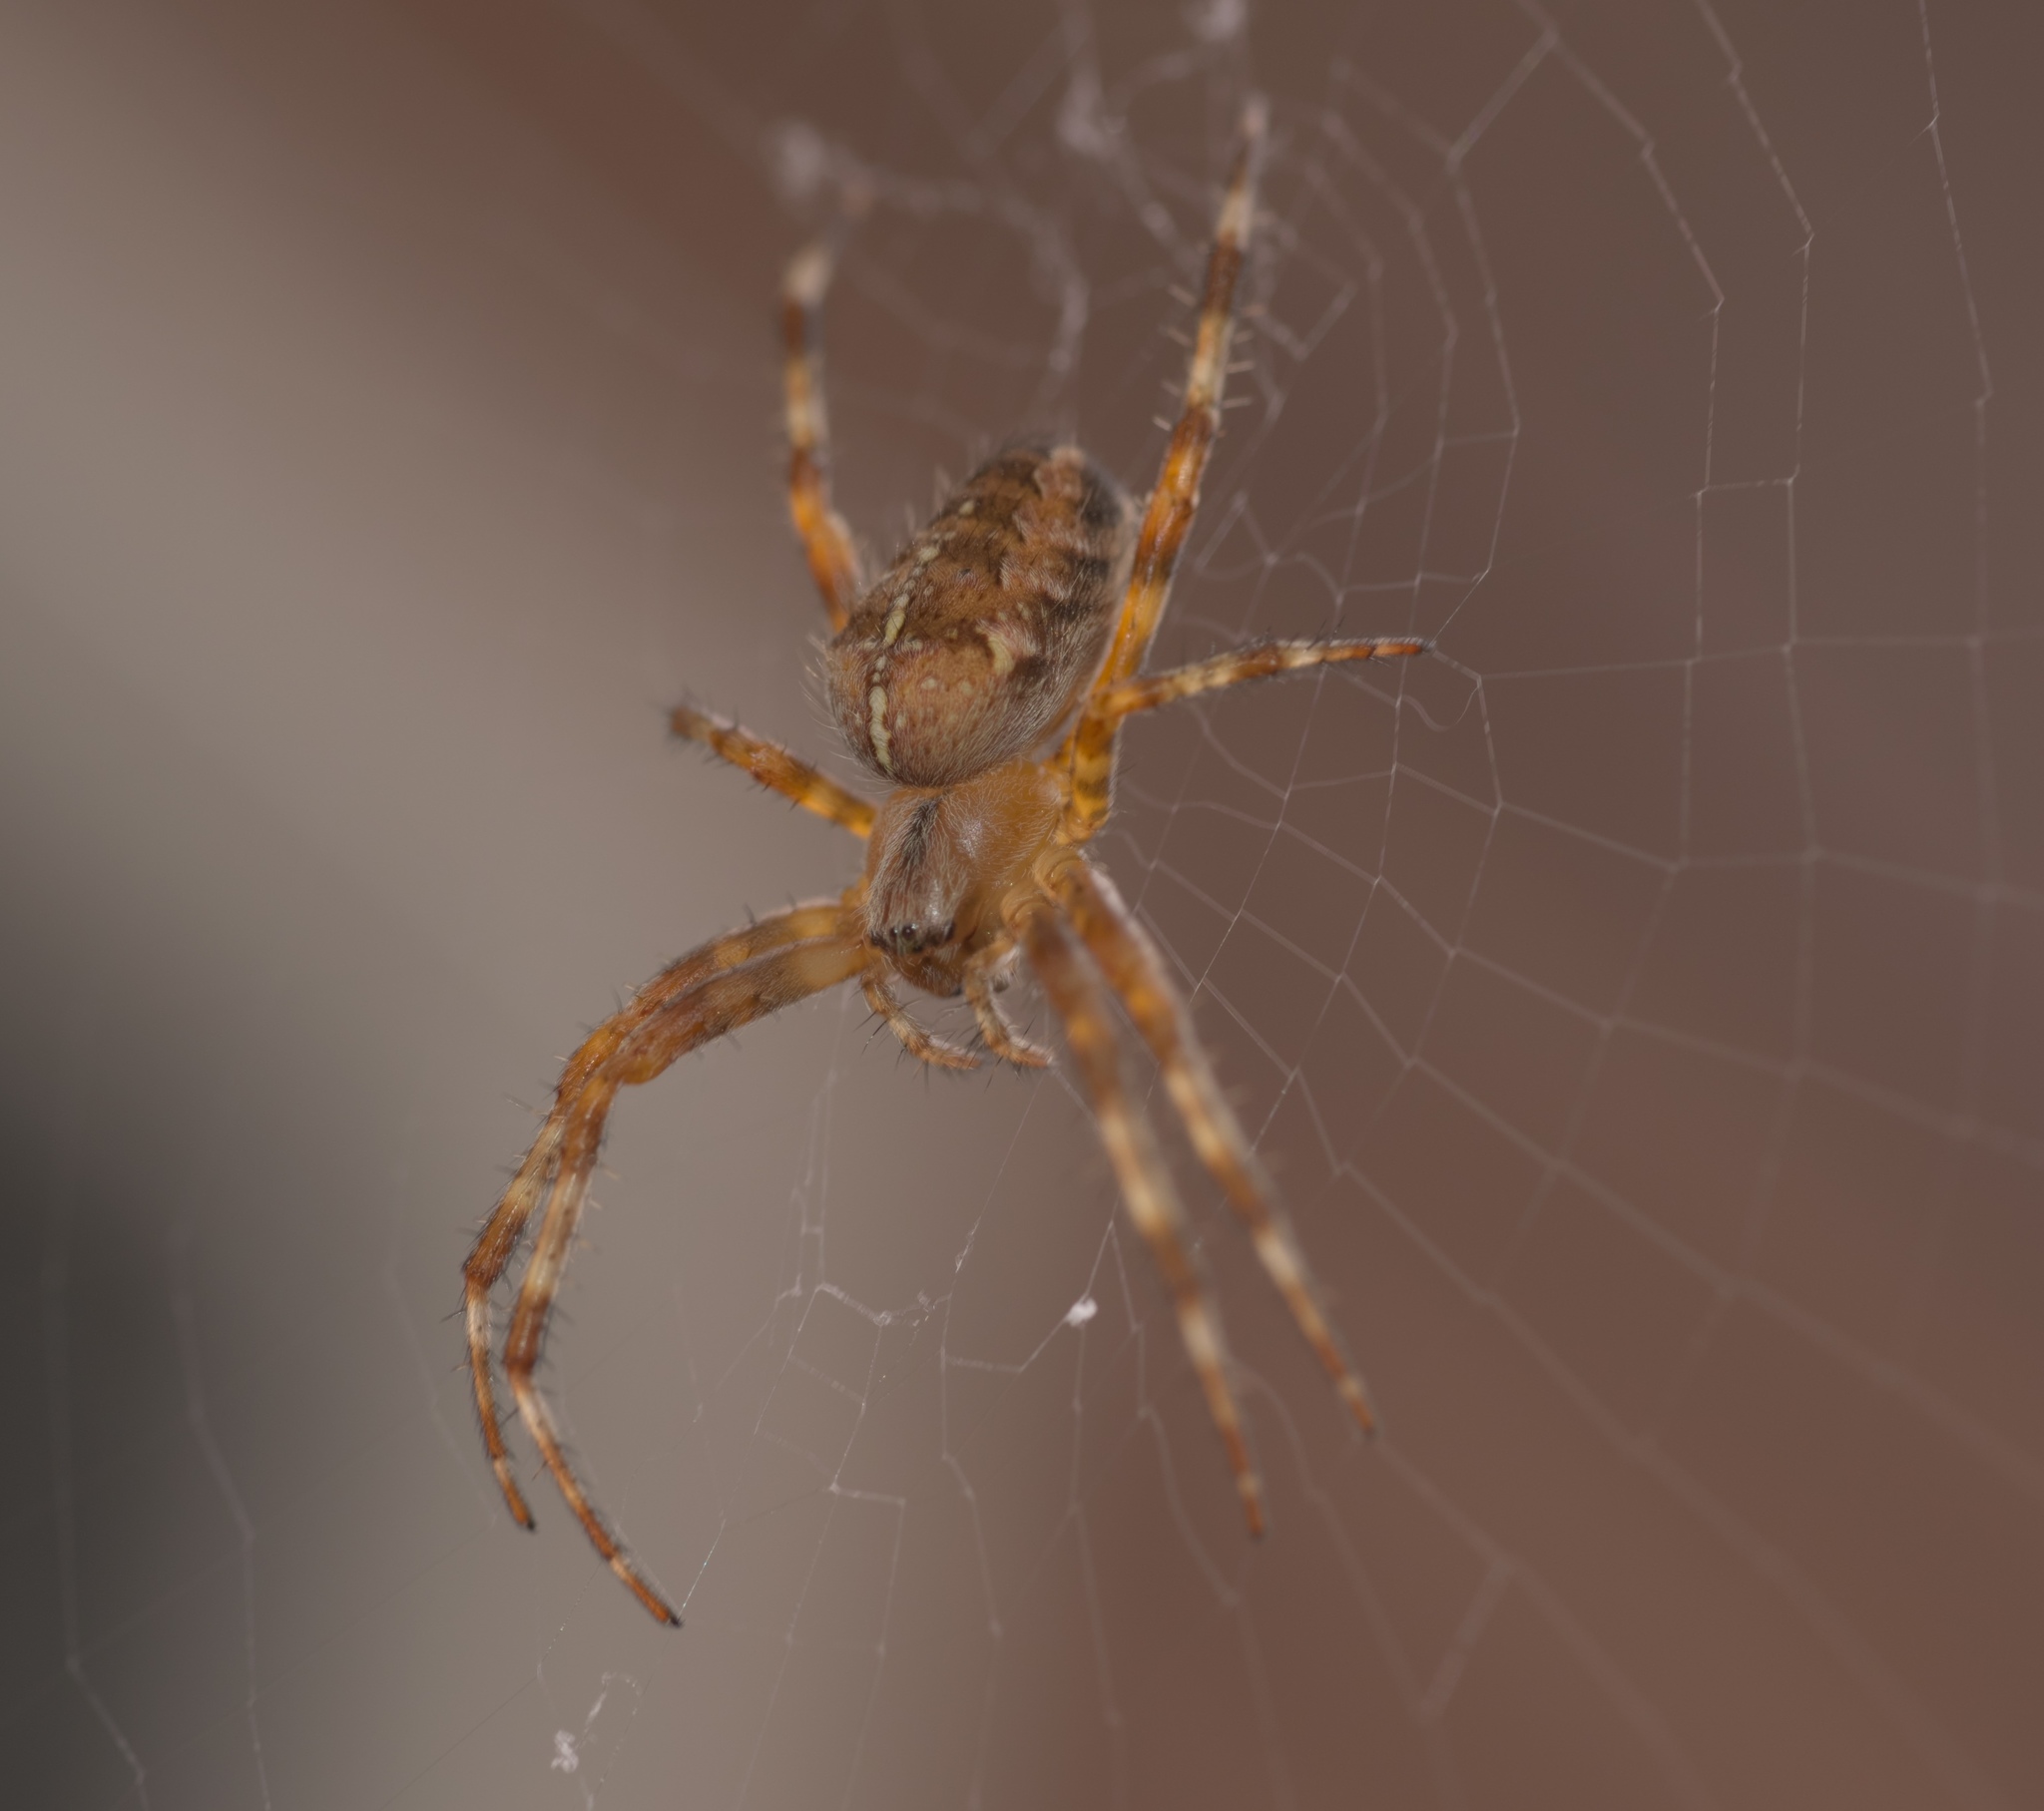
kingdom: Animalia
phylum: Arthropoda
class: Arachnida
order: Araneae
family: Araneidae
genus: Araneus
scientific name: Araneus diadematus
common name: Cross orbweaver
